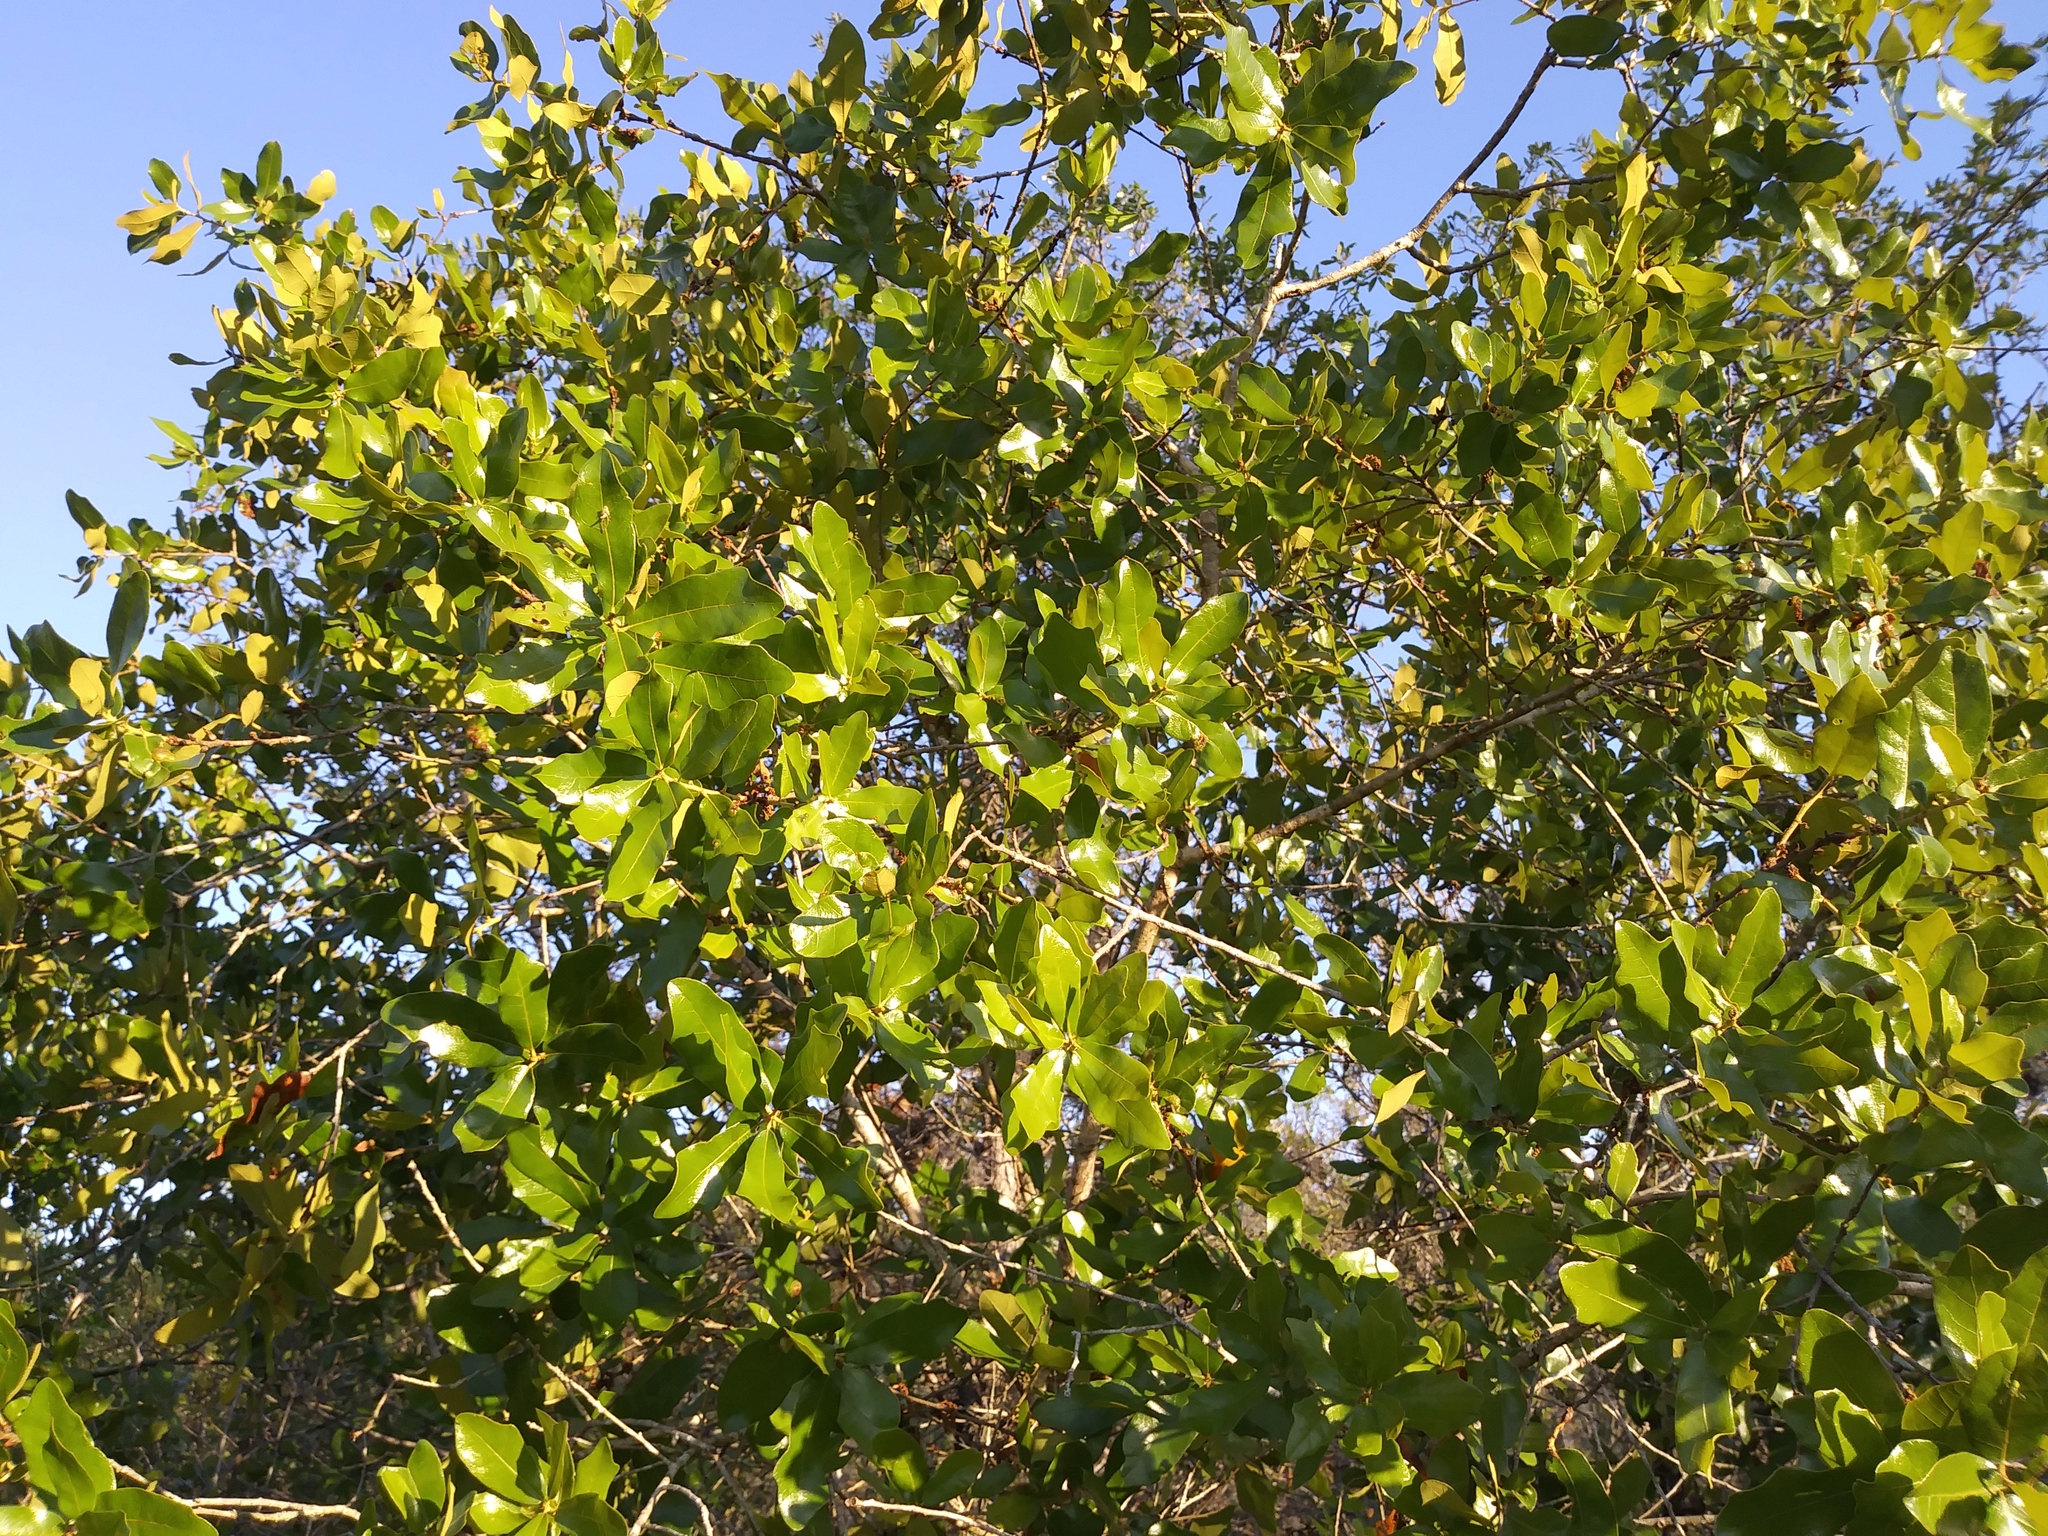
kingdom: Plantae
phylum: Tracheophyta
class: Magnoliopsida
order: Fagales
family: Fagaceae
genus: Quercus
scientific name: Quercus chapmanii
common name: Chapman oak
